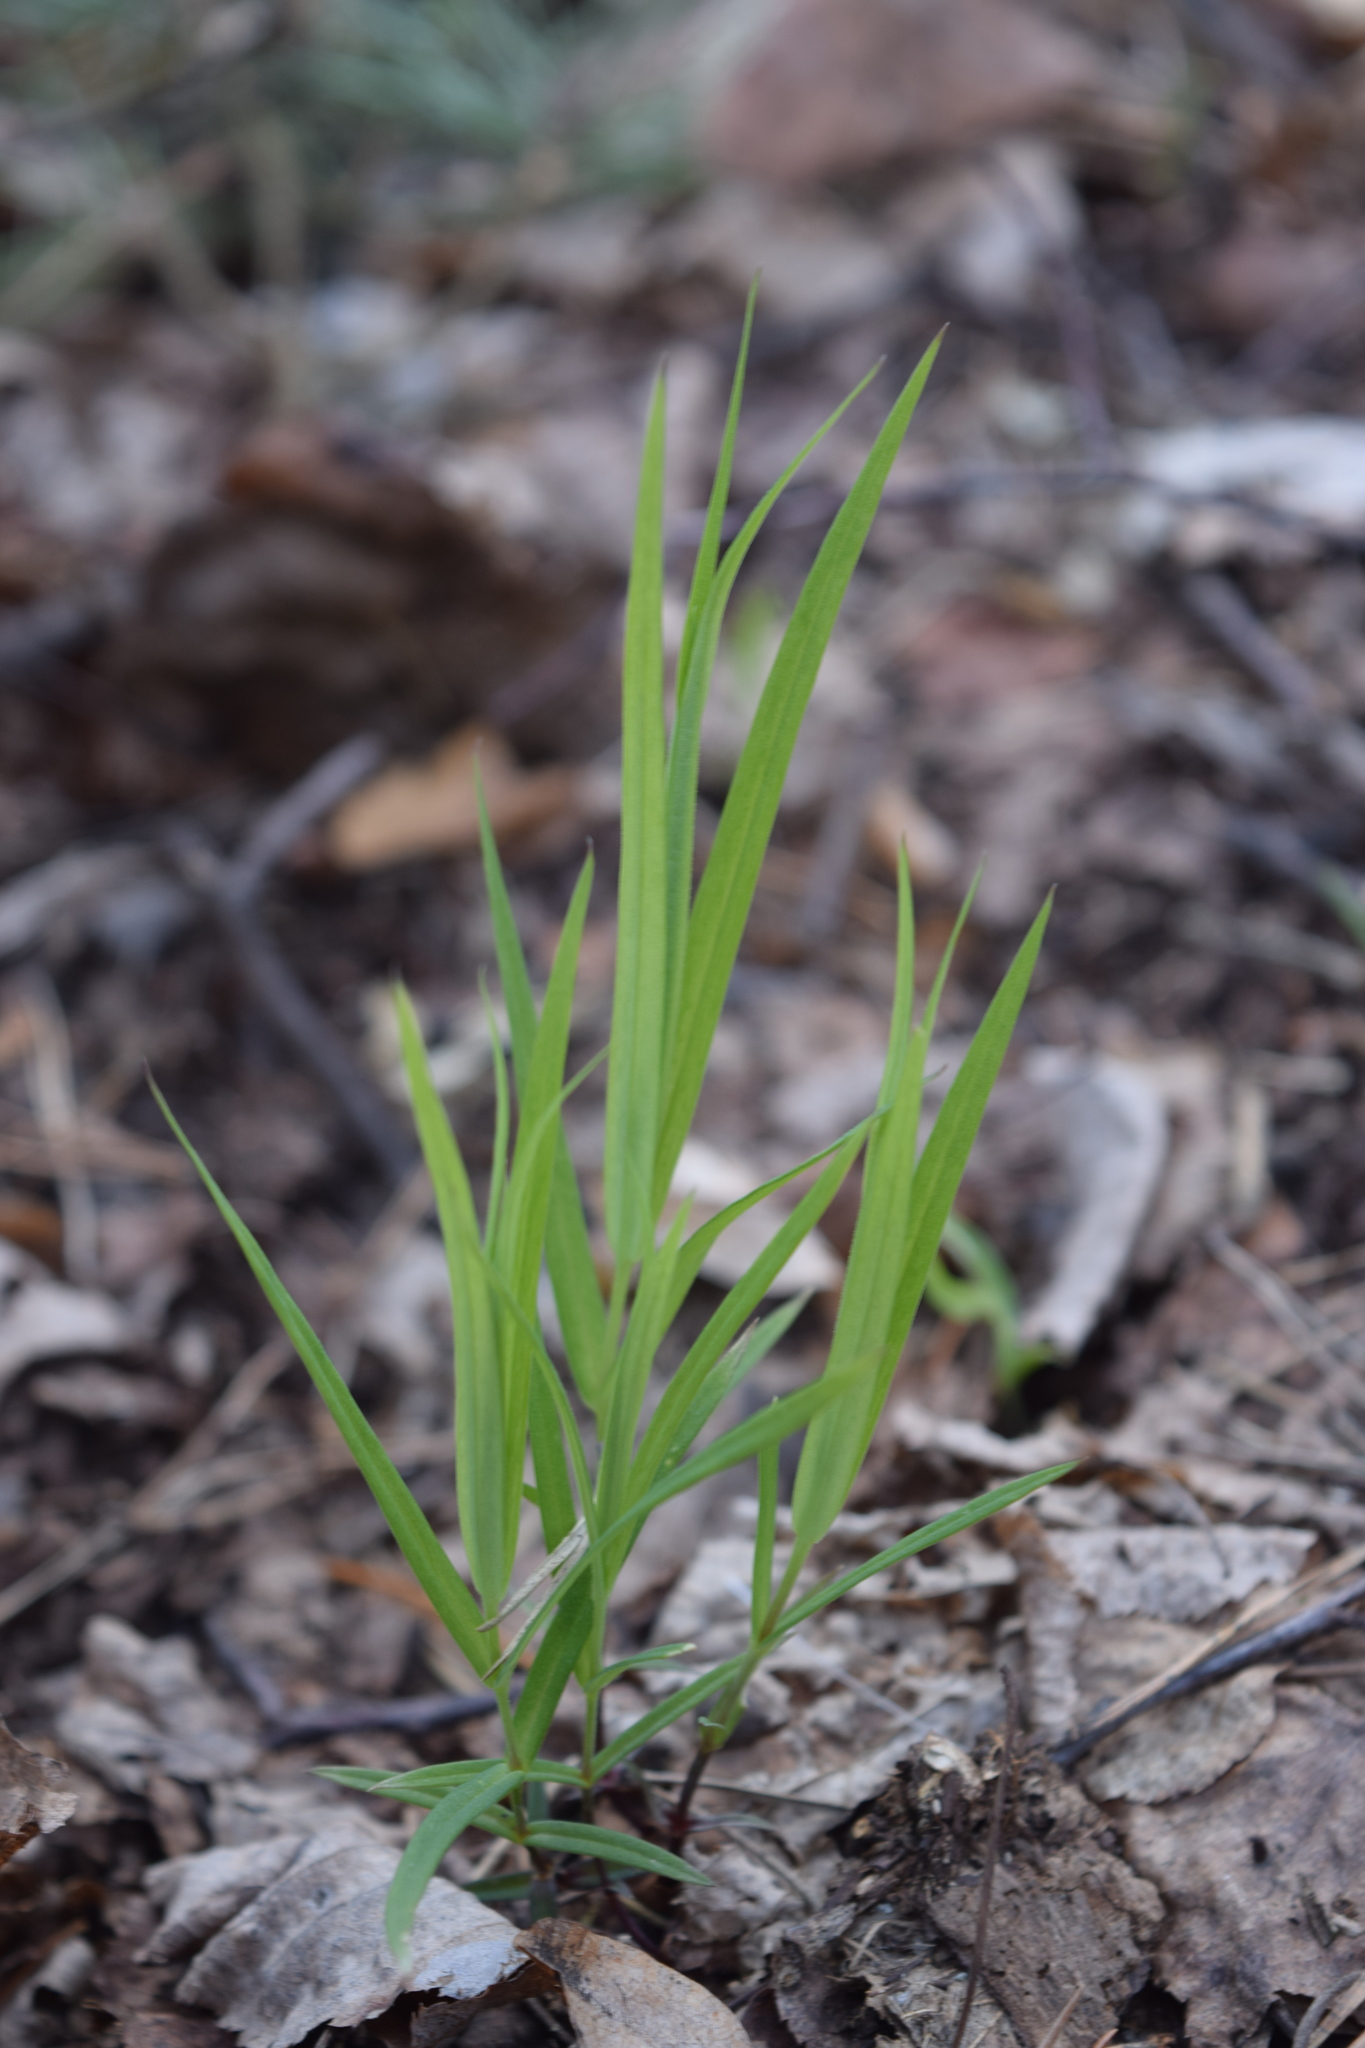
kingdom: Plantae
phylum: Tracheophyta
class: Magnoliopsida
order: Caryophyllales
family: Caryophyllaceae
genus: Rabelera
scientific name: Rabelera holostea
